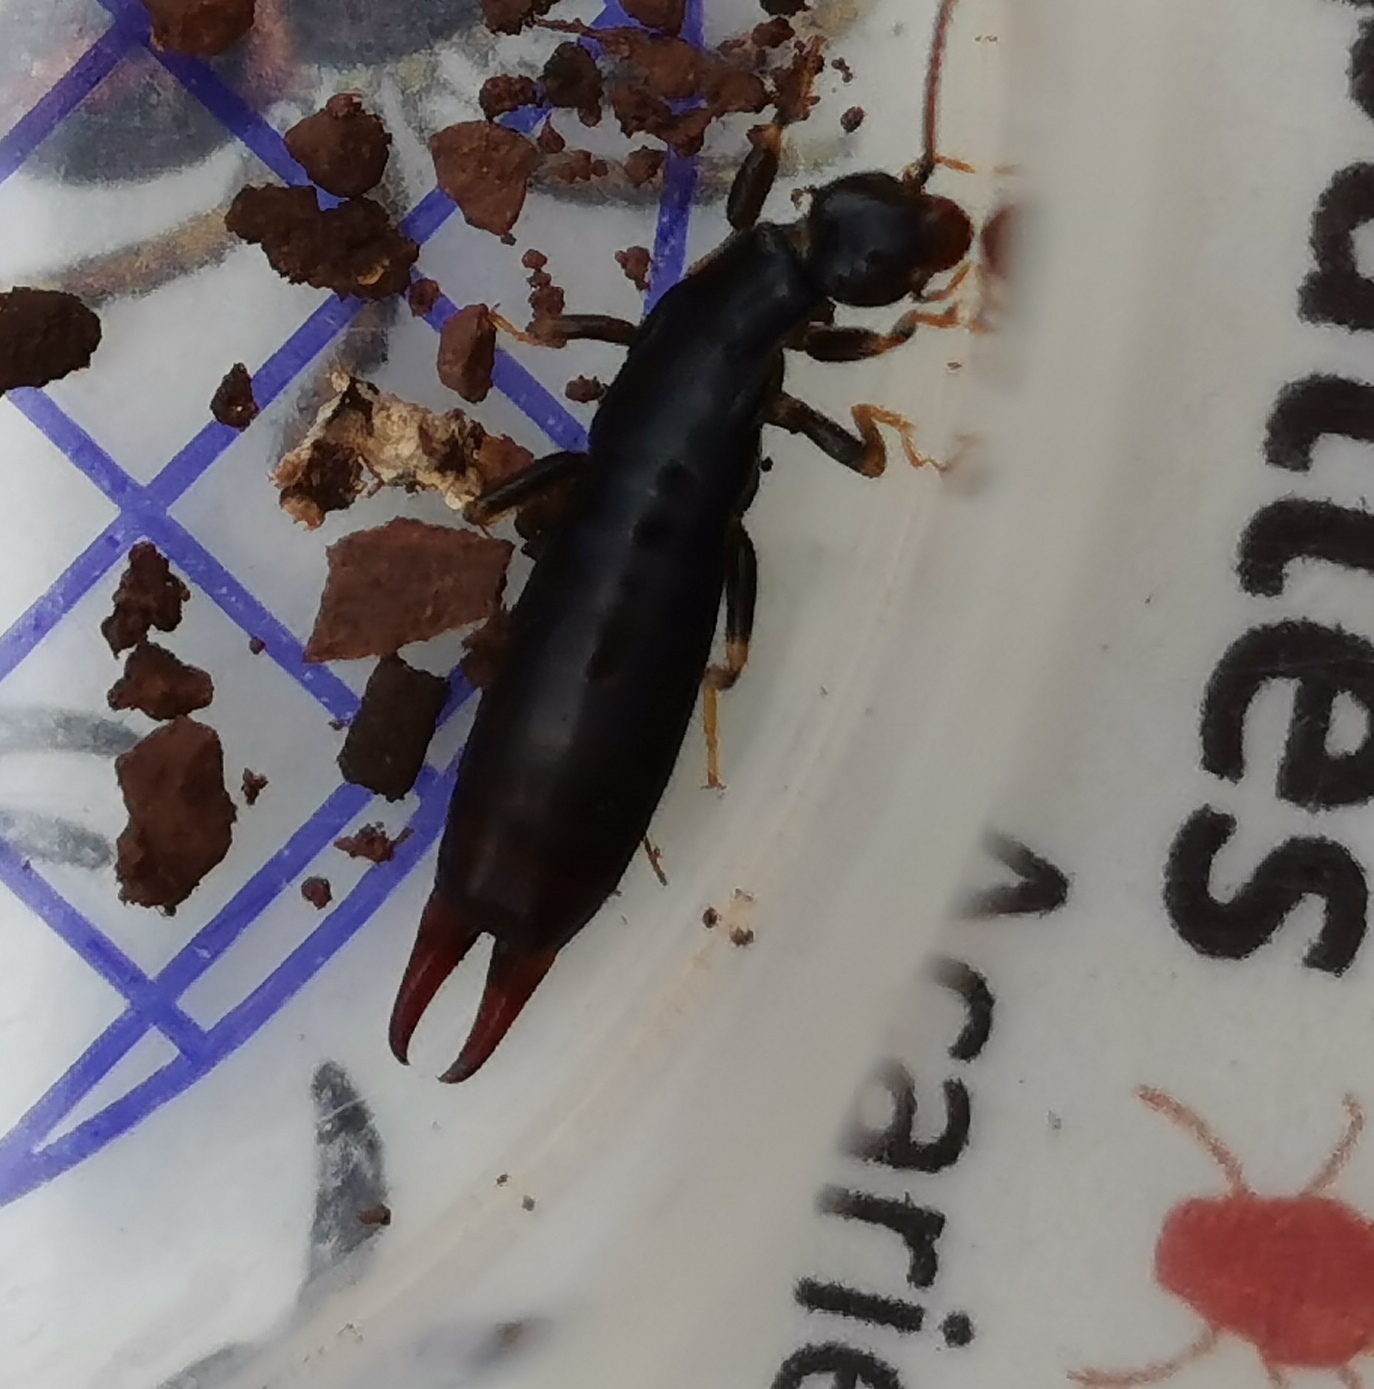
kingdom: Animalia
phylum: Arthropoda
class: Insecta
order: Dermaptera
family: Anisolabididae
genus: Euborellia
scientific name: Euborellia moesta
